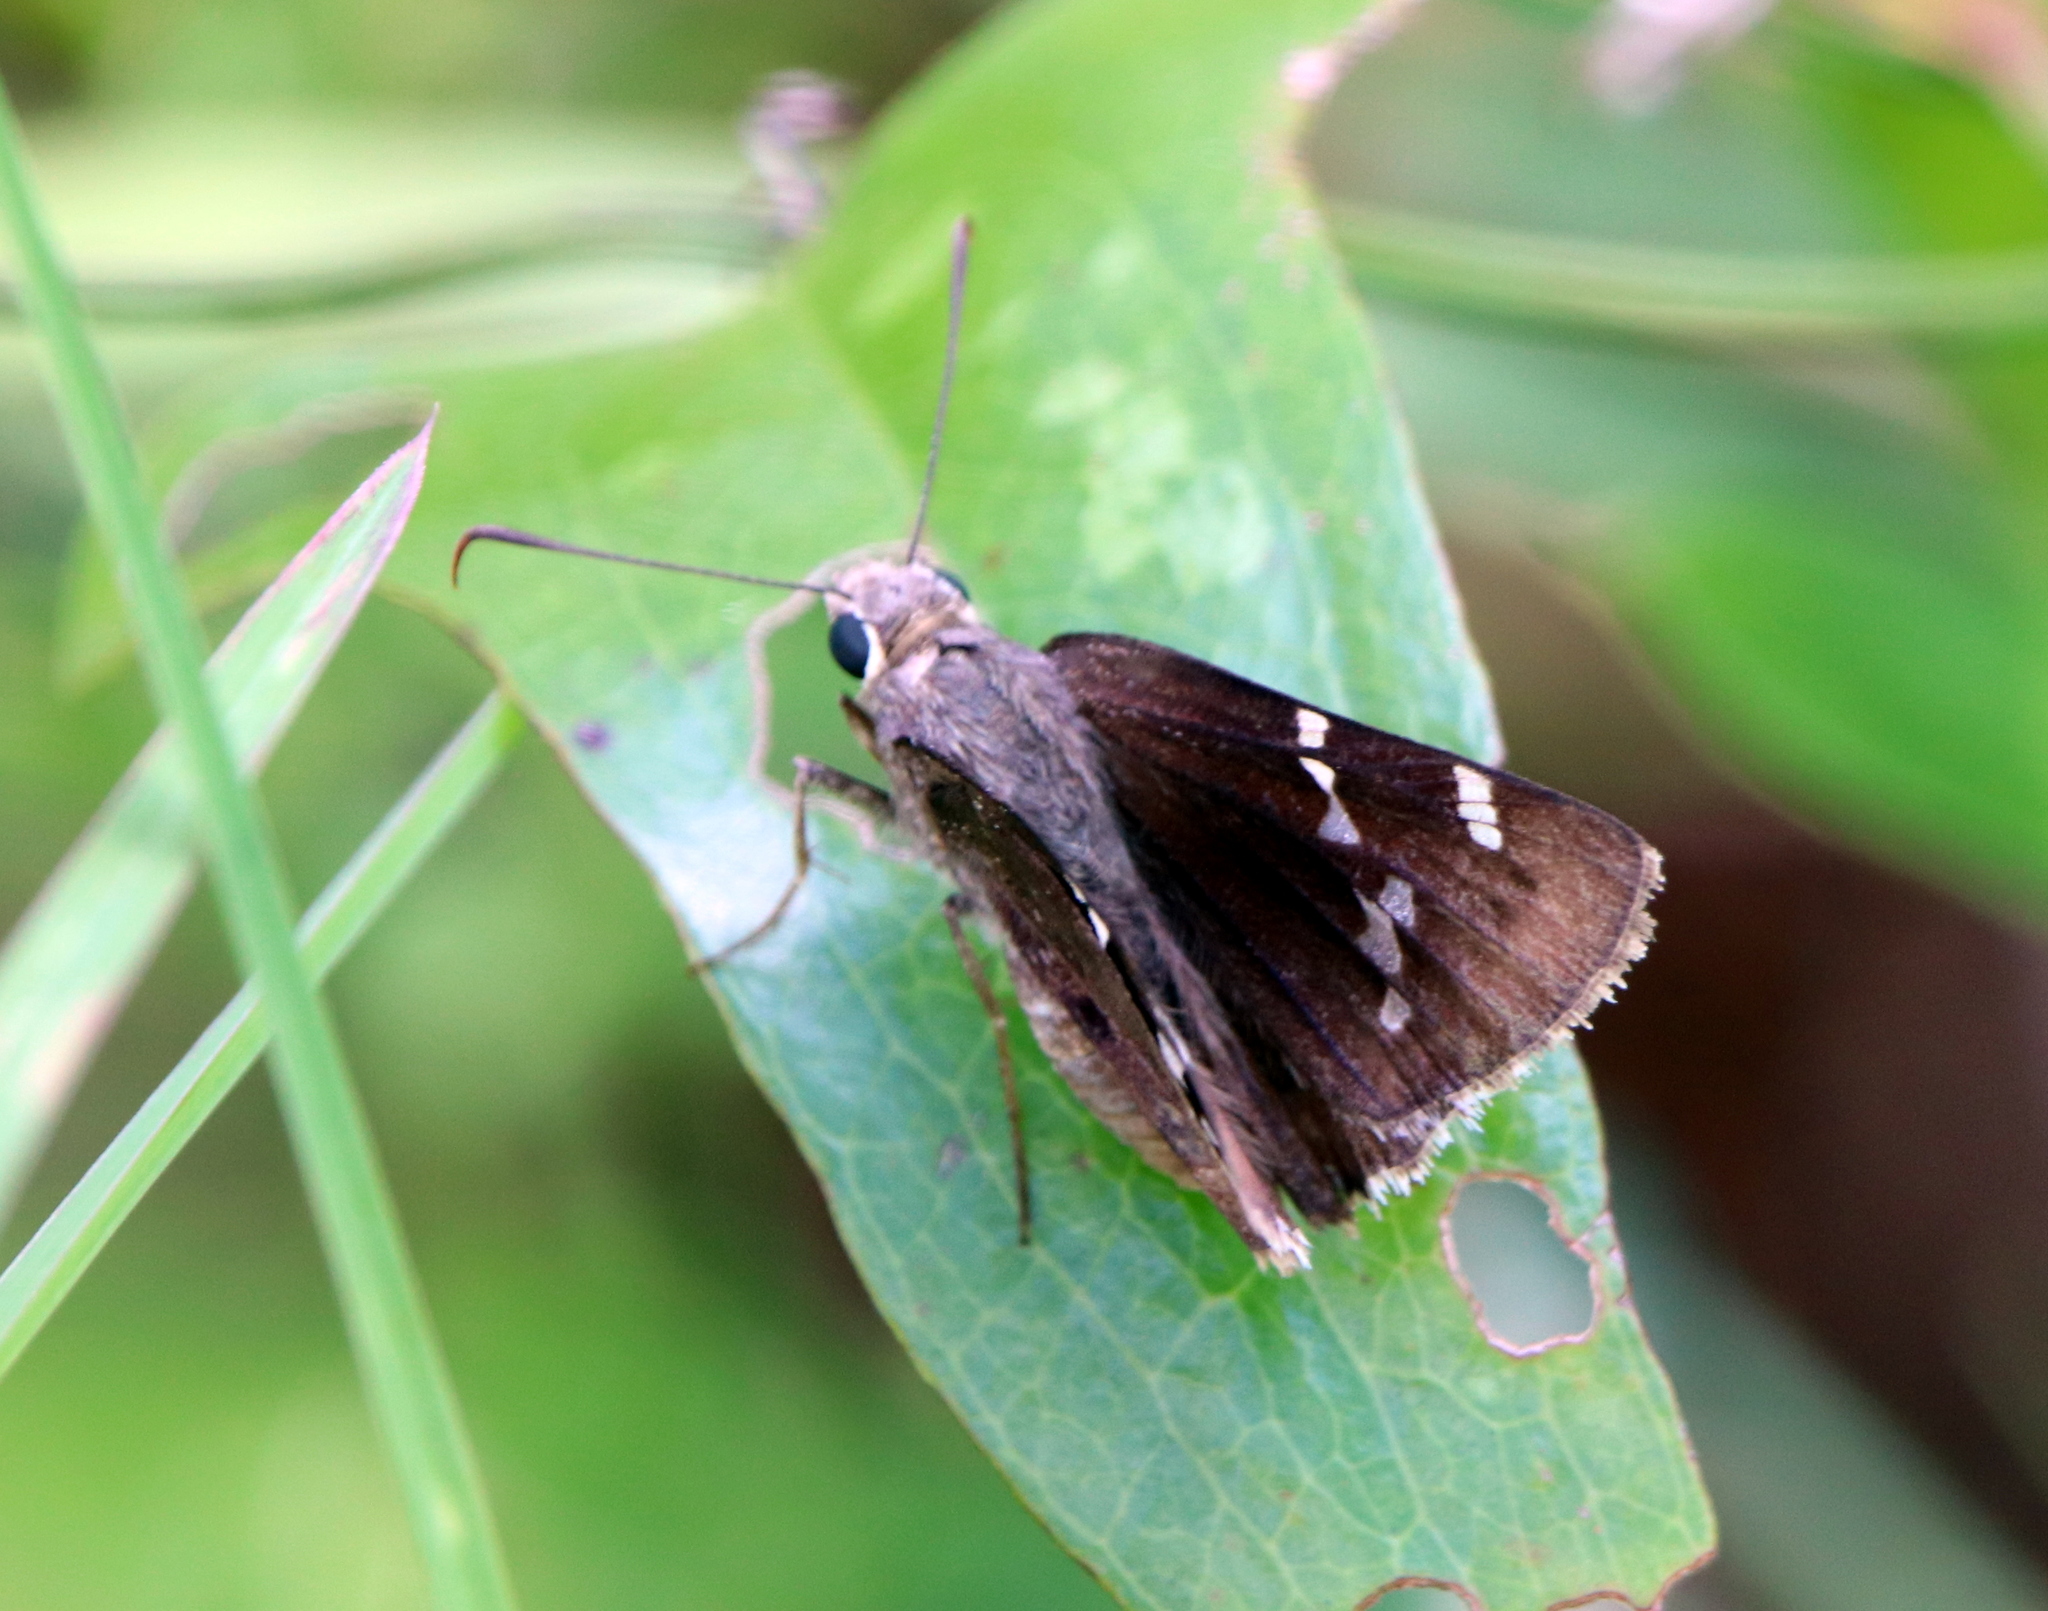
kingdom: Animalia
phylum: Arthropoda
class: Insecta
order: Lepidoptera
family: Hesperiidae
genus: Thorybes
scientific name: Thorybes daunus
